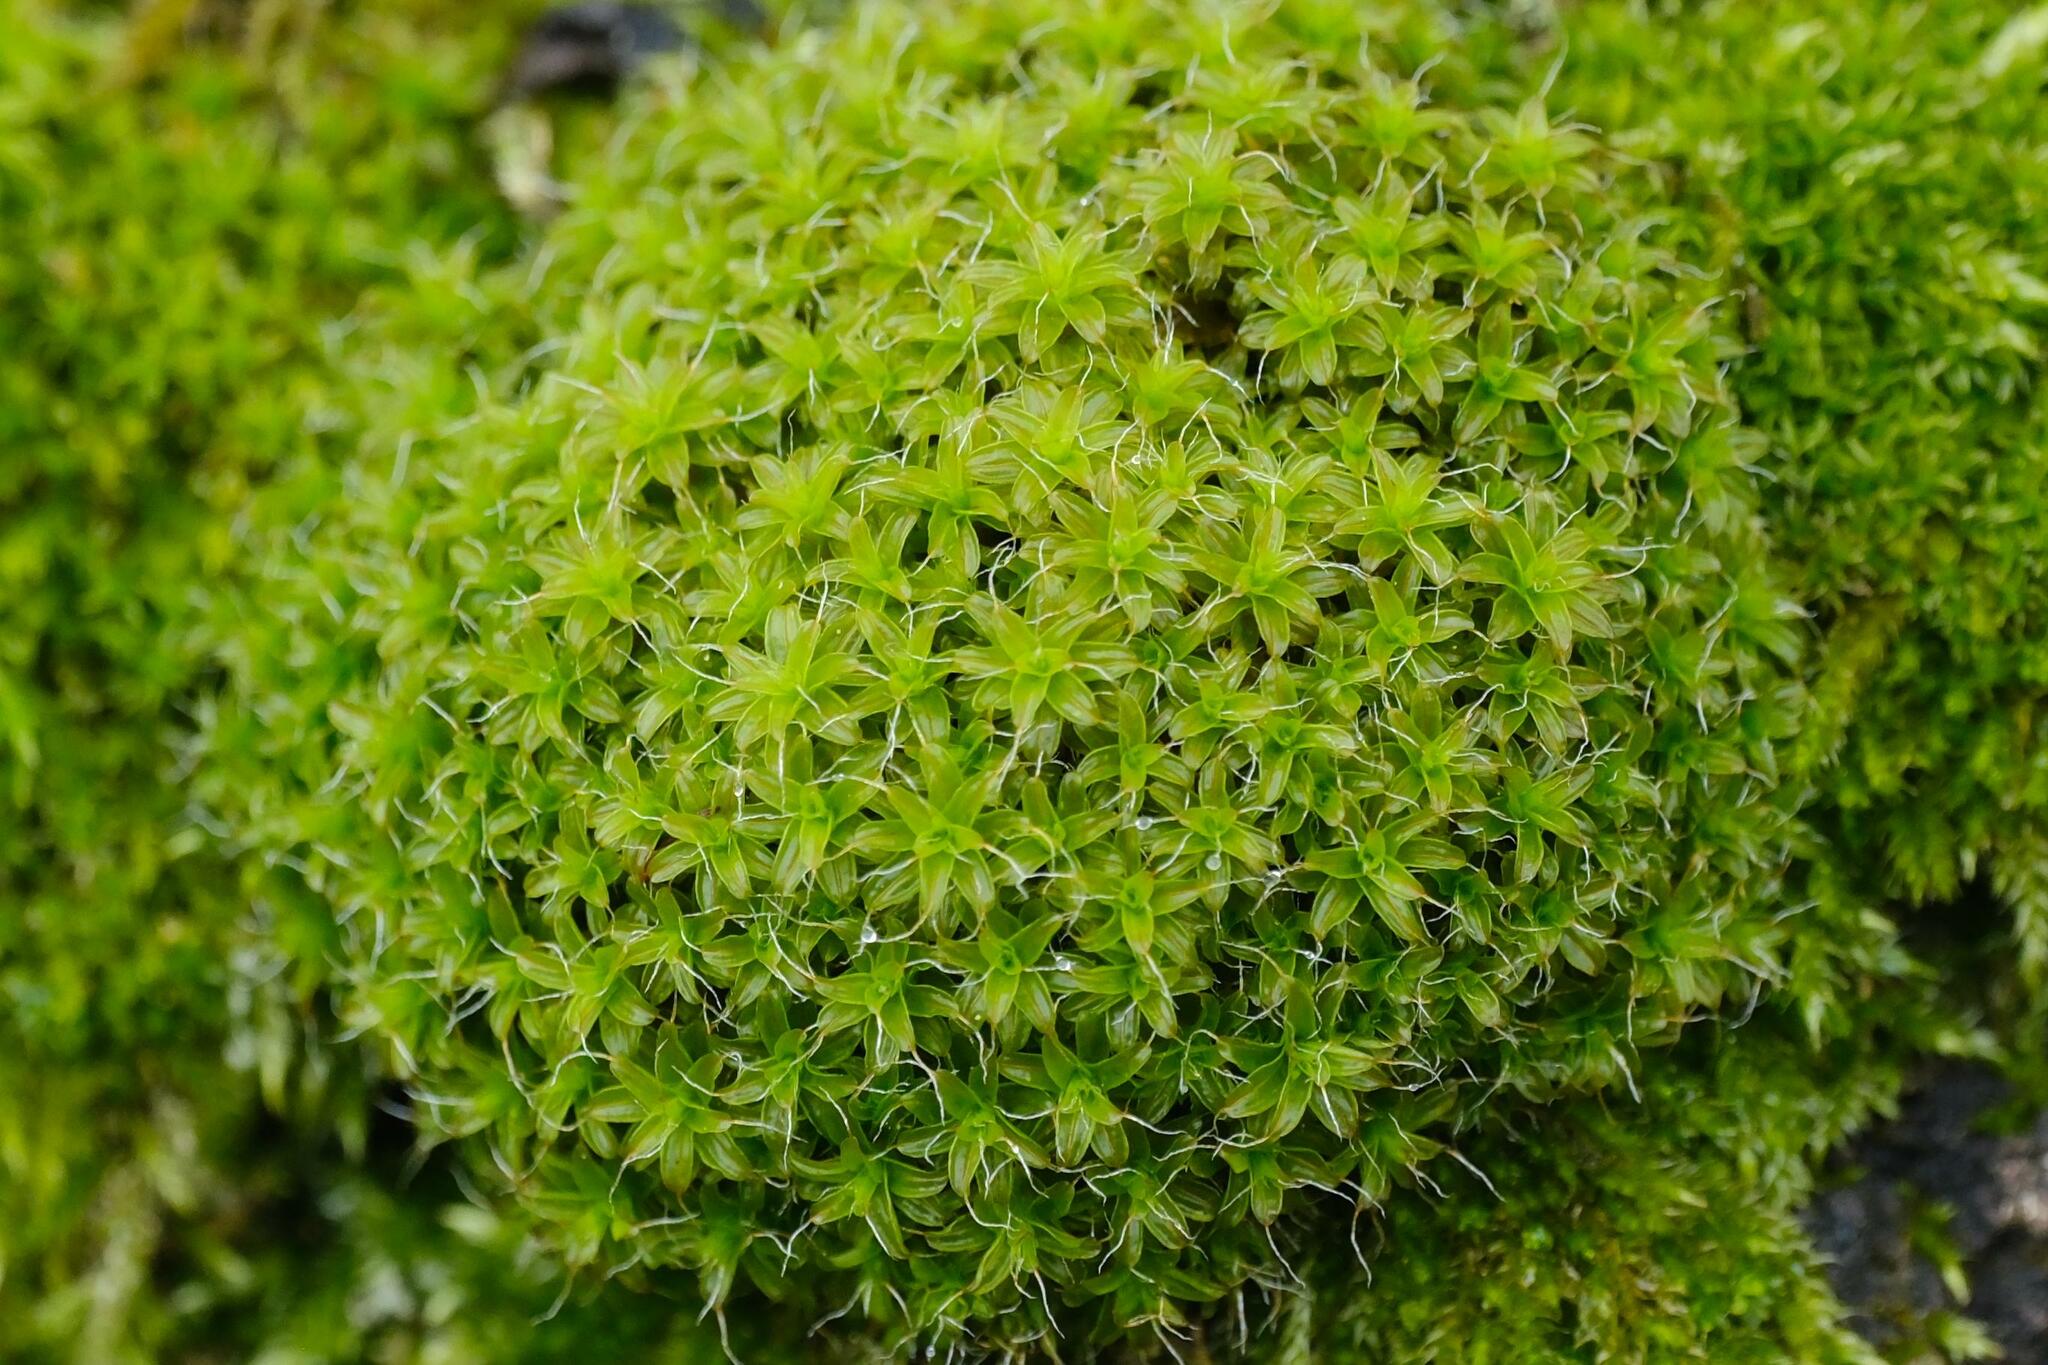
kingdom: Plantae
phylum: Bryophyta
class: Bryopsida
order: Pottiales
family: Pottiaceae
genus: Syntrichia
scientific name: Syntrichia ruralis
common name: Sidewalk screw moss
